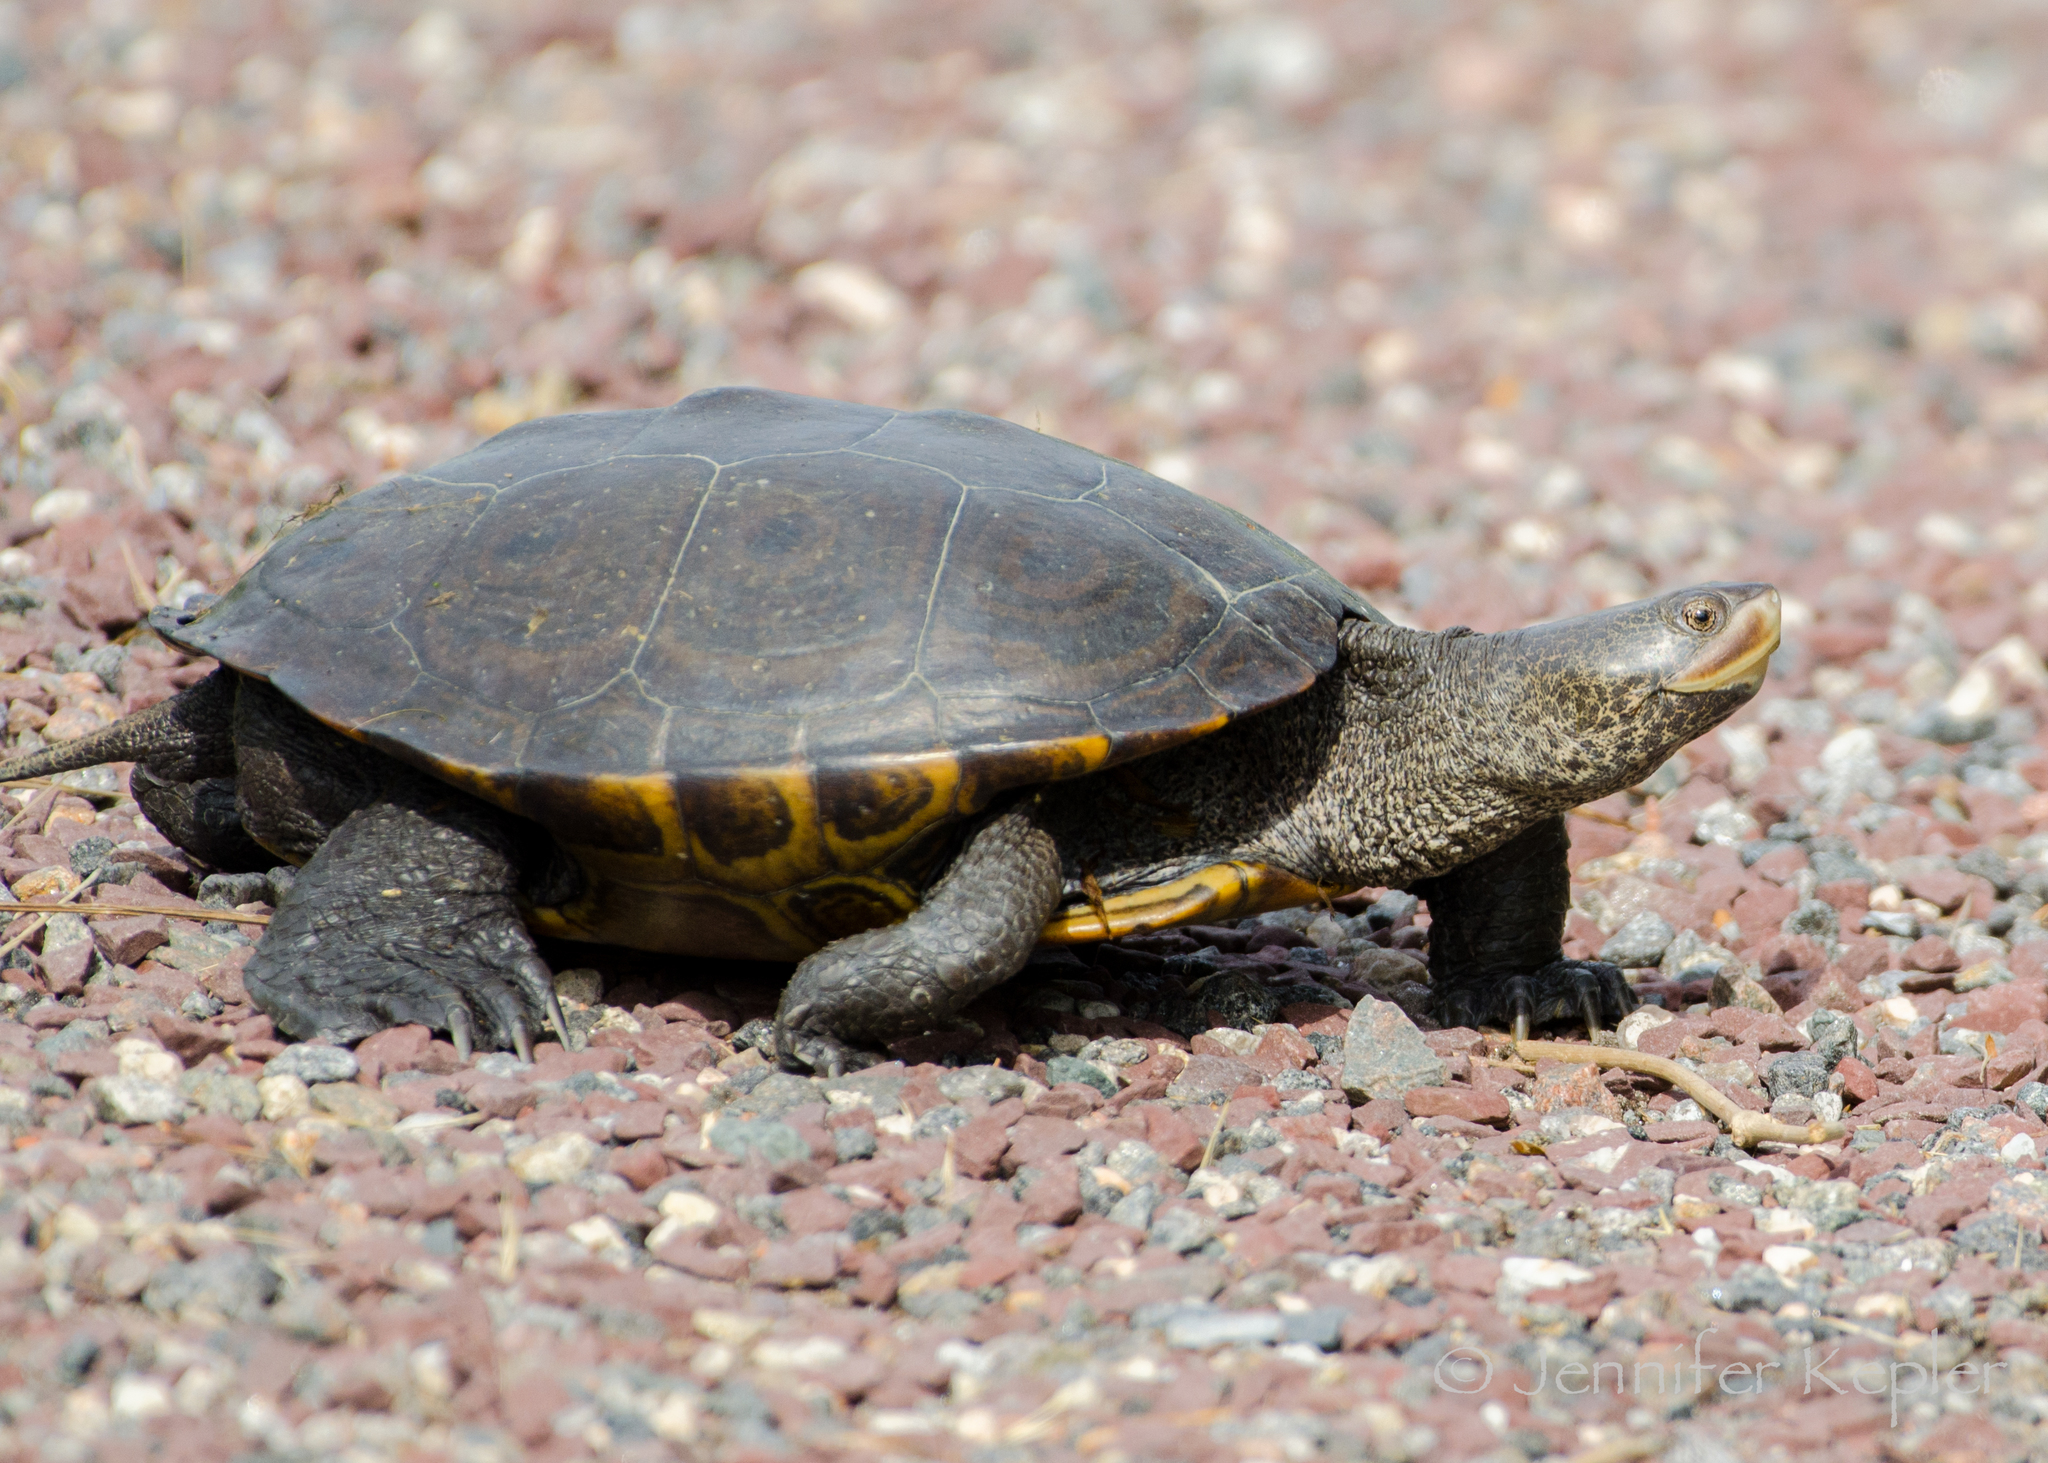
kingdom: Animalia
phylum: Chordata
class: Testudines
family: Emydidae
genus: Malaclemys
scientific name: Malaclemys terrapin
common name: Diamondback terrapin
